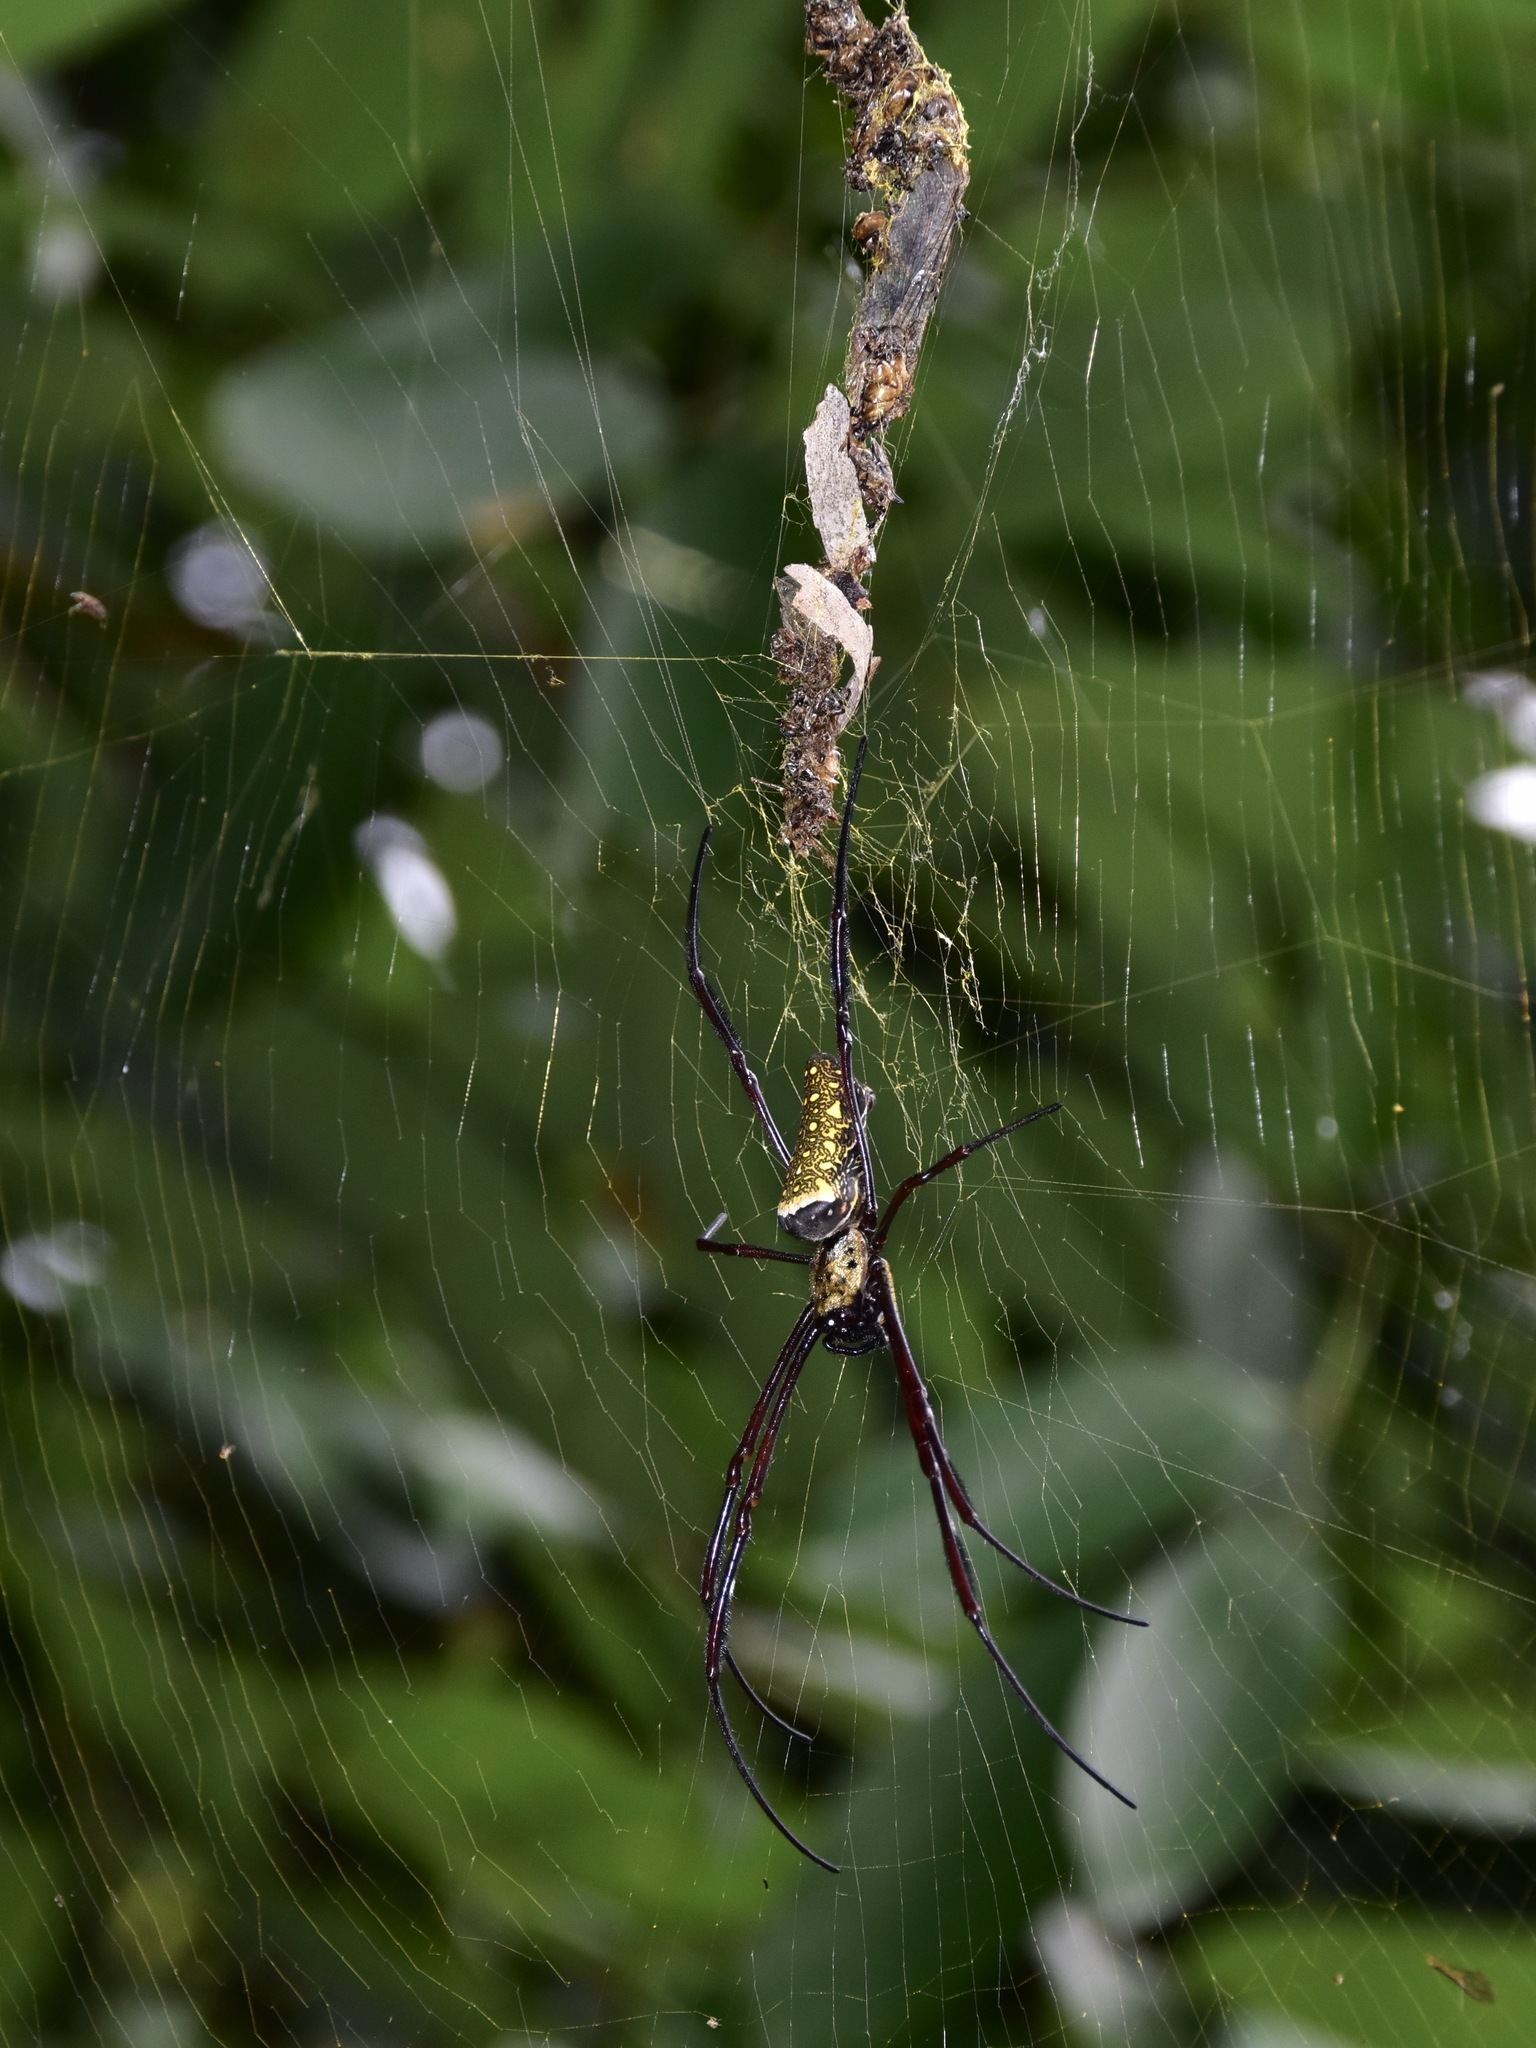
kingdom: Animalia
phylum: Arthropoda
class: Arachnida
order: Araneae
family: Araneidae
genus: Trichonephila
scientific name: Trichonephila antipodiana
